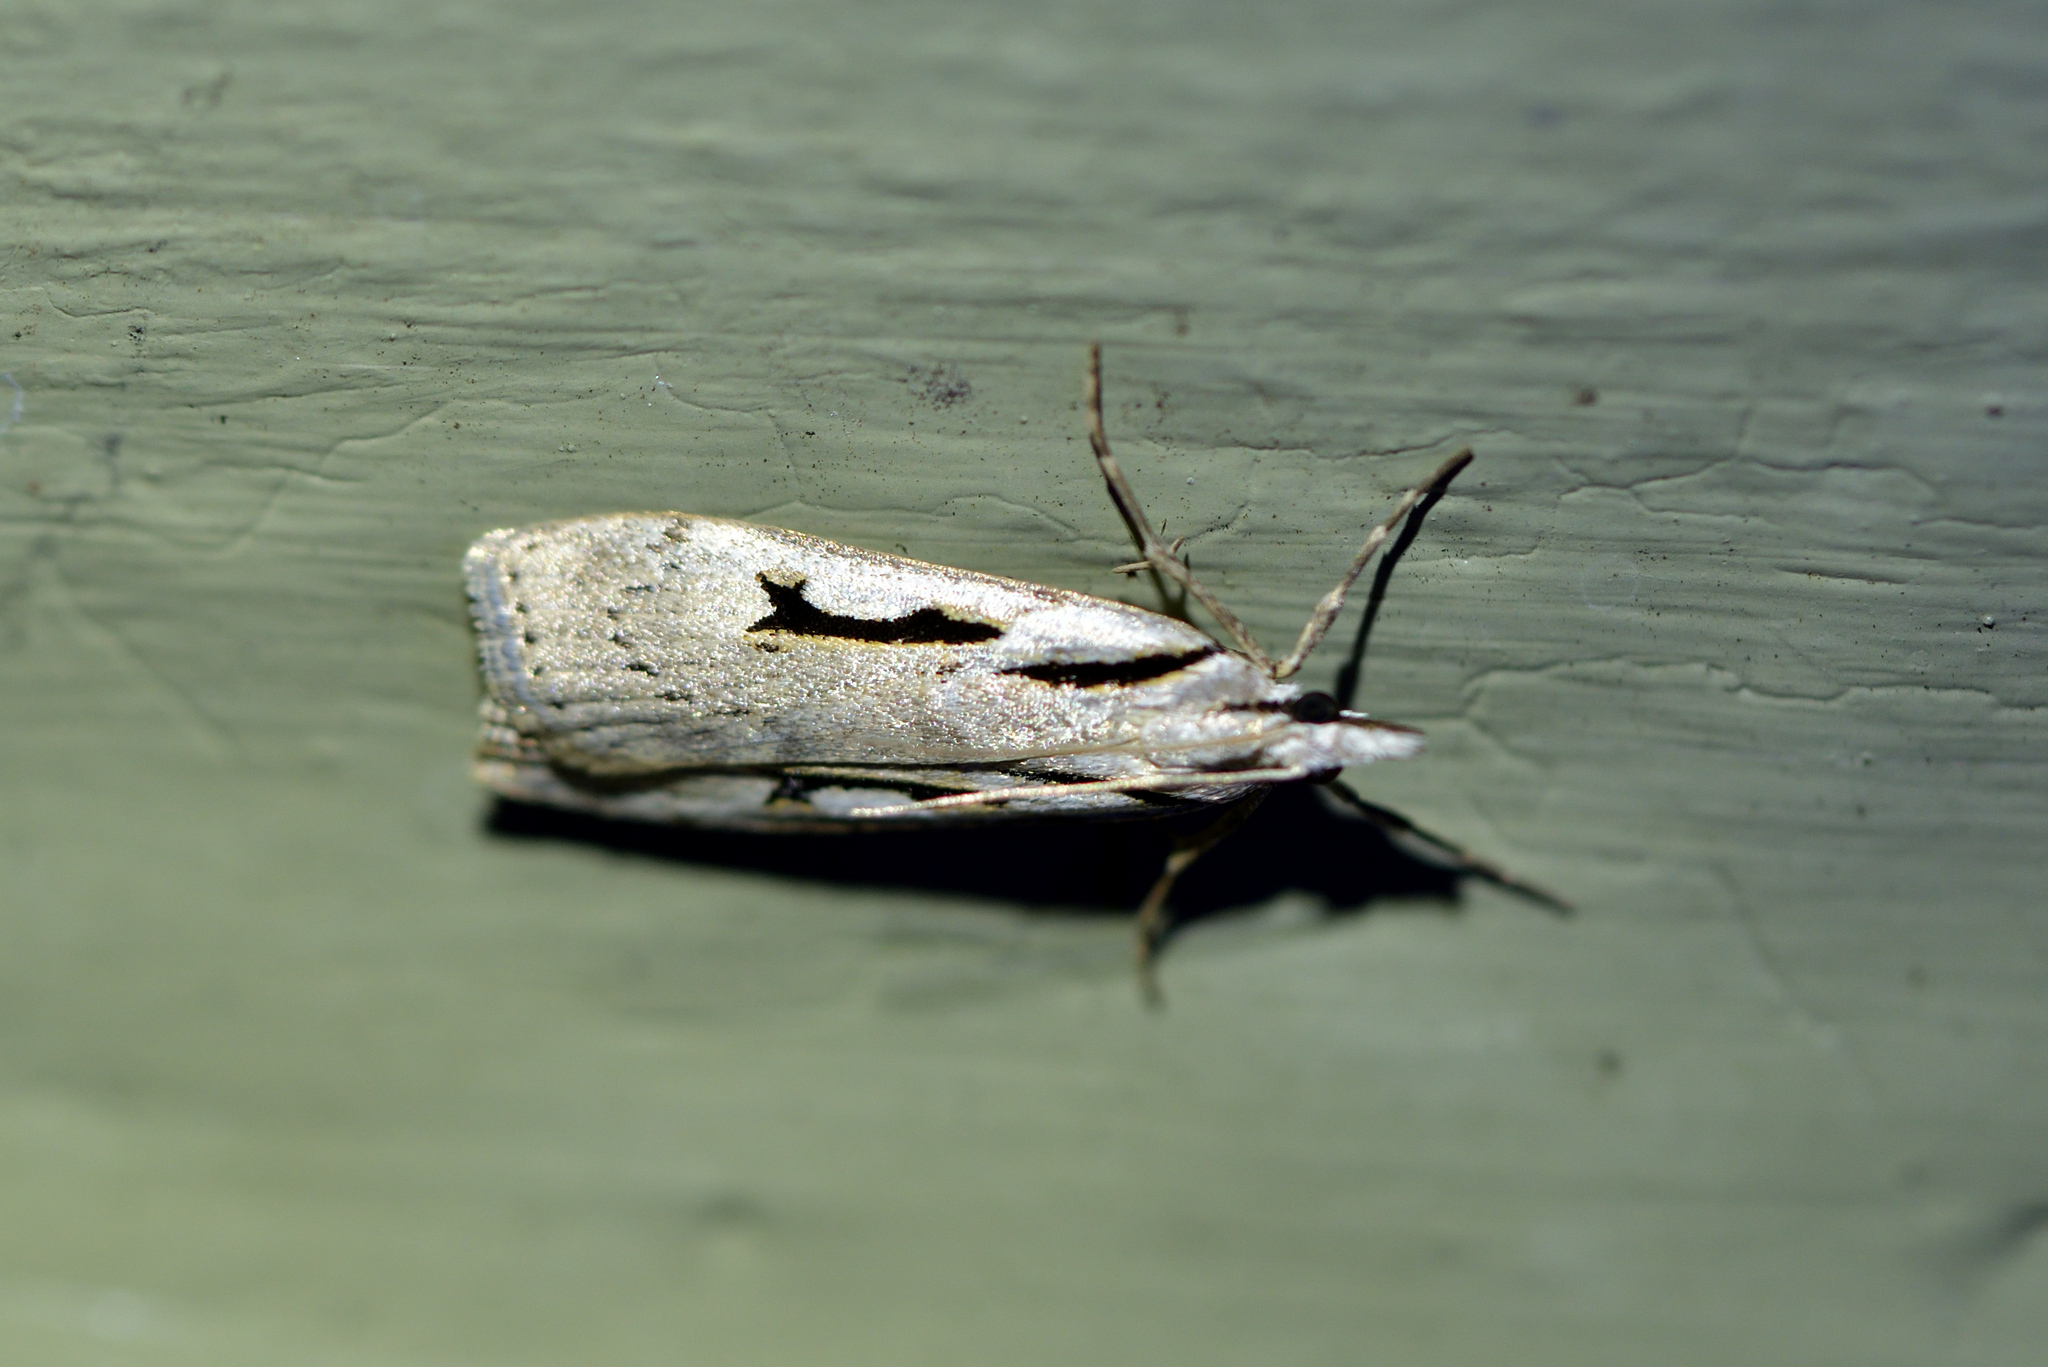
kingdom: Animalia
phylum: Arthropoda
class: Insecta
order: Lepidoptera
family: Crambidae
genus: Scoparia
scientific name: Scoparia rotuellus
